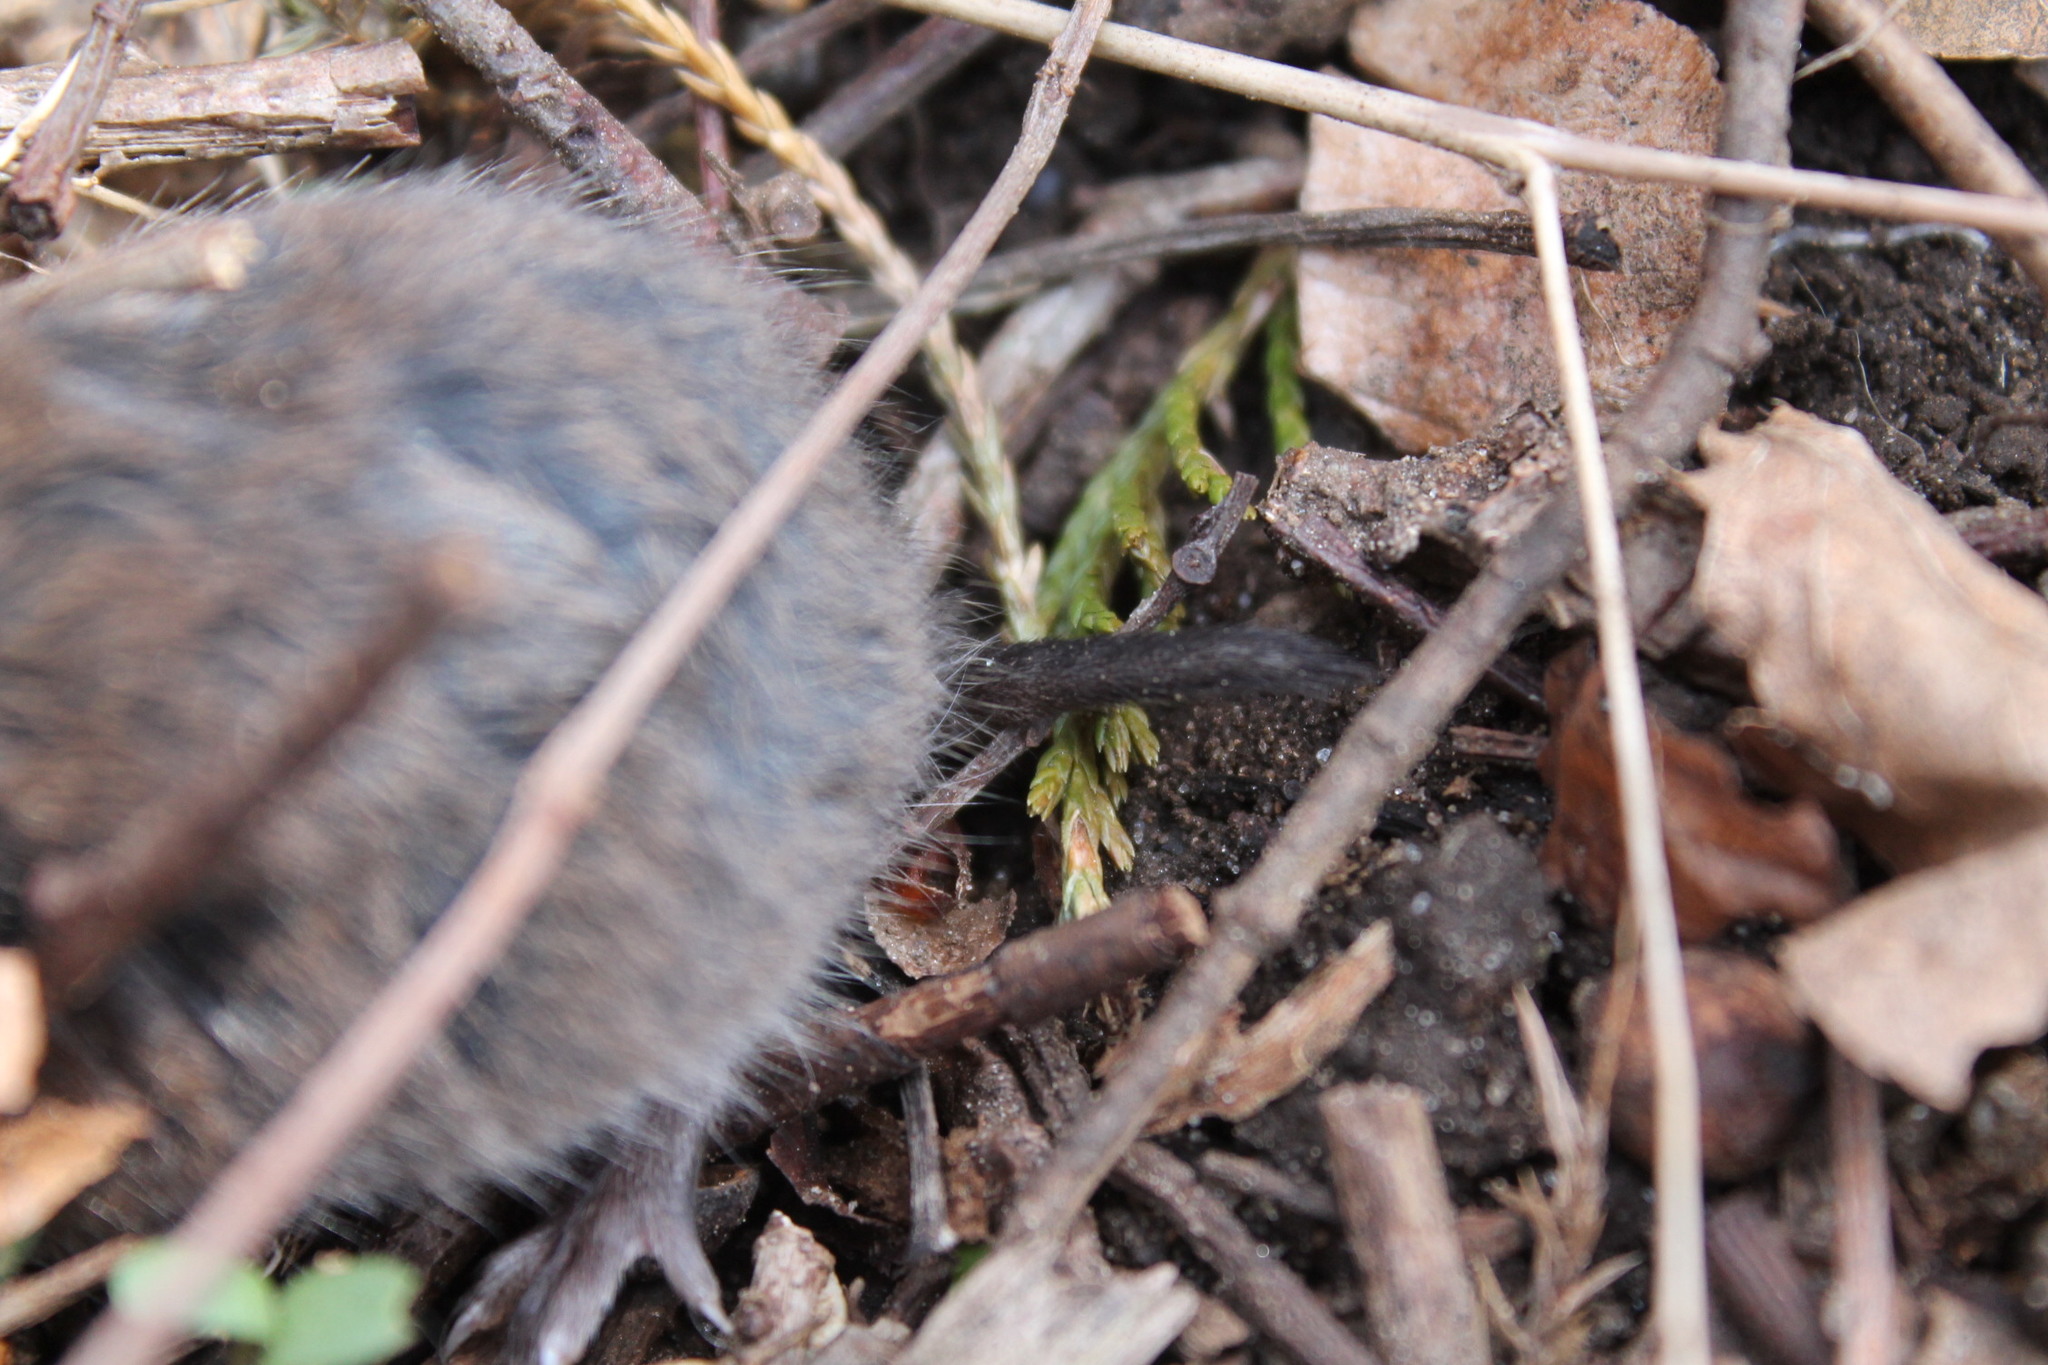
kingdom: Animalia
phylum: Chordata
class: Mammalia
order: Rodentia
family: Cricetidae
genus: Microtus
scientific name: Microtus pinetorum
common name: Woodland vole
